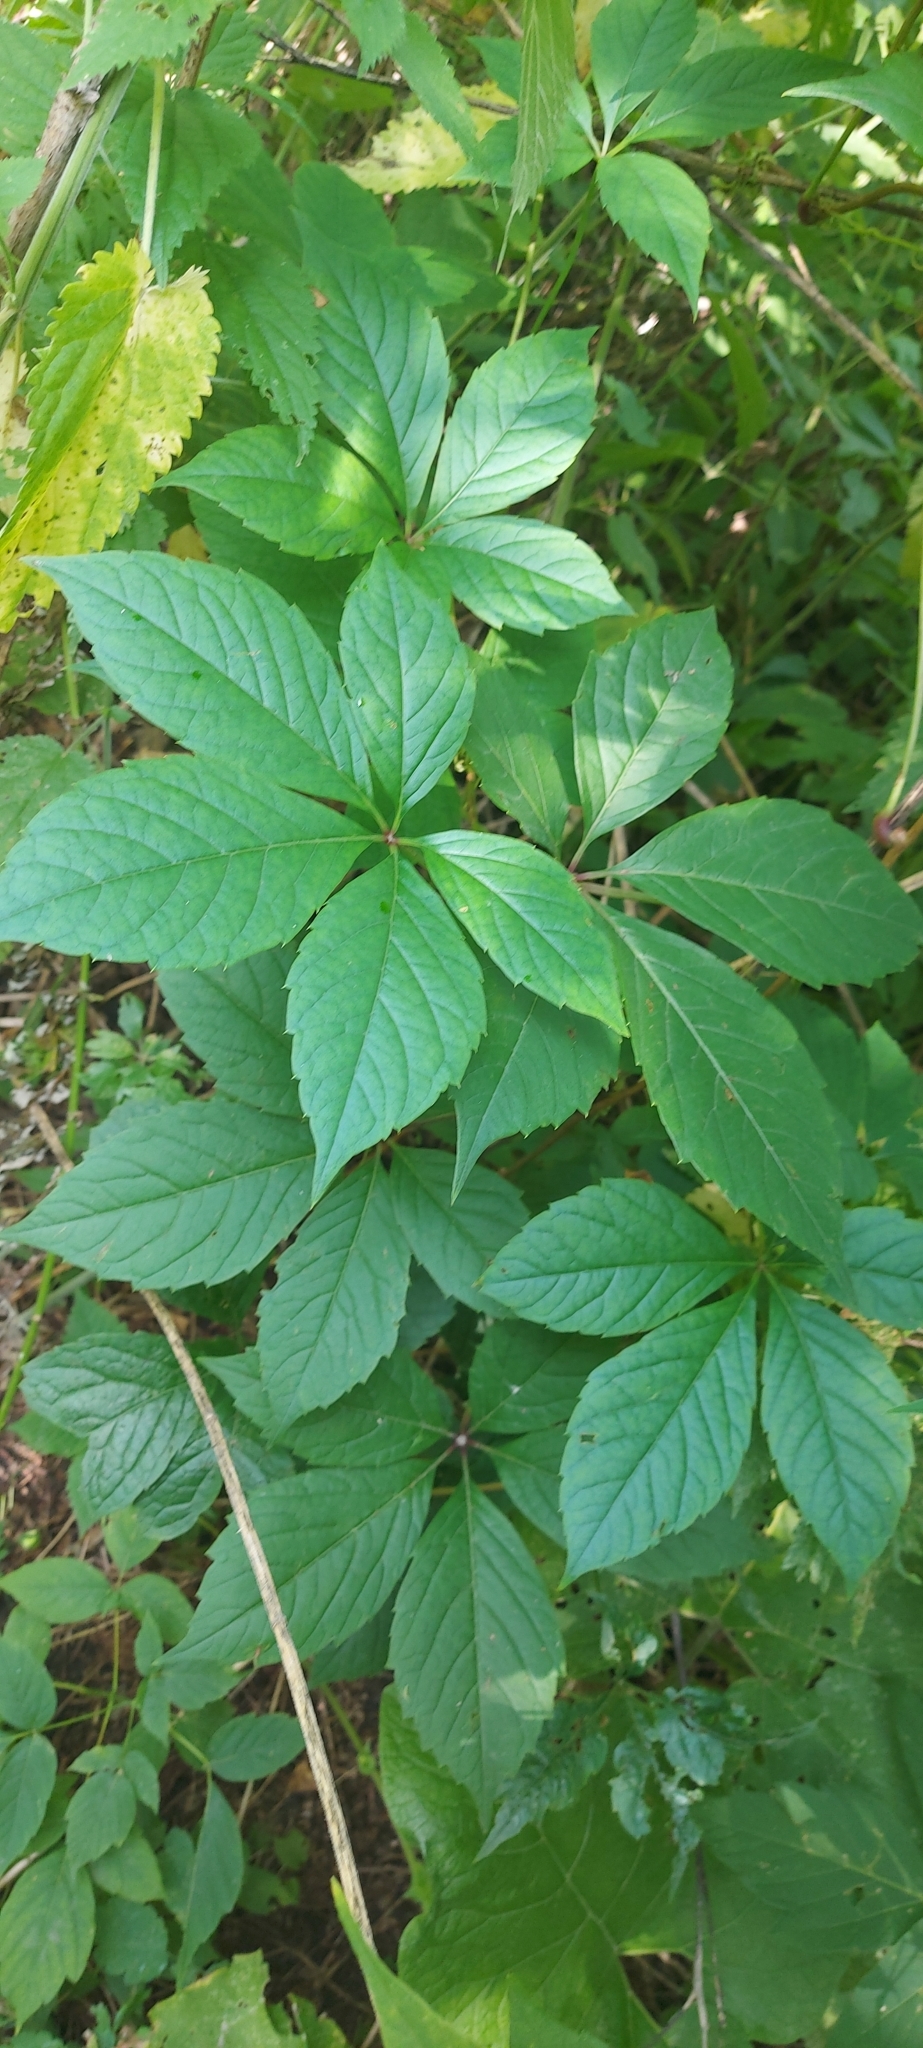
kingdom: Plantae
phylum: Tracheophyta
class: Magnoliopsida
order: Vitales
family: Vitaceae
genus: Parthenocissus
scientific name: Parthenocissus inserta
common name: False virginia-creeper
